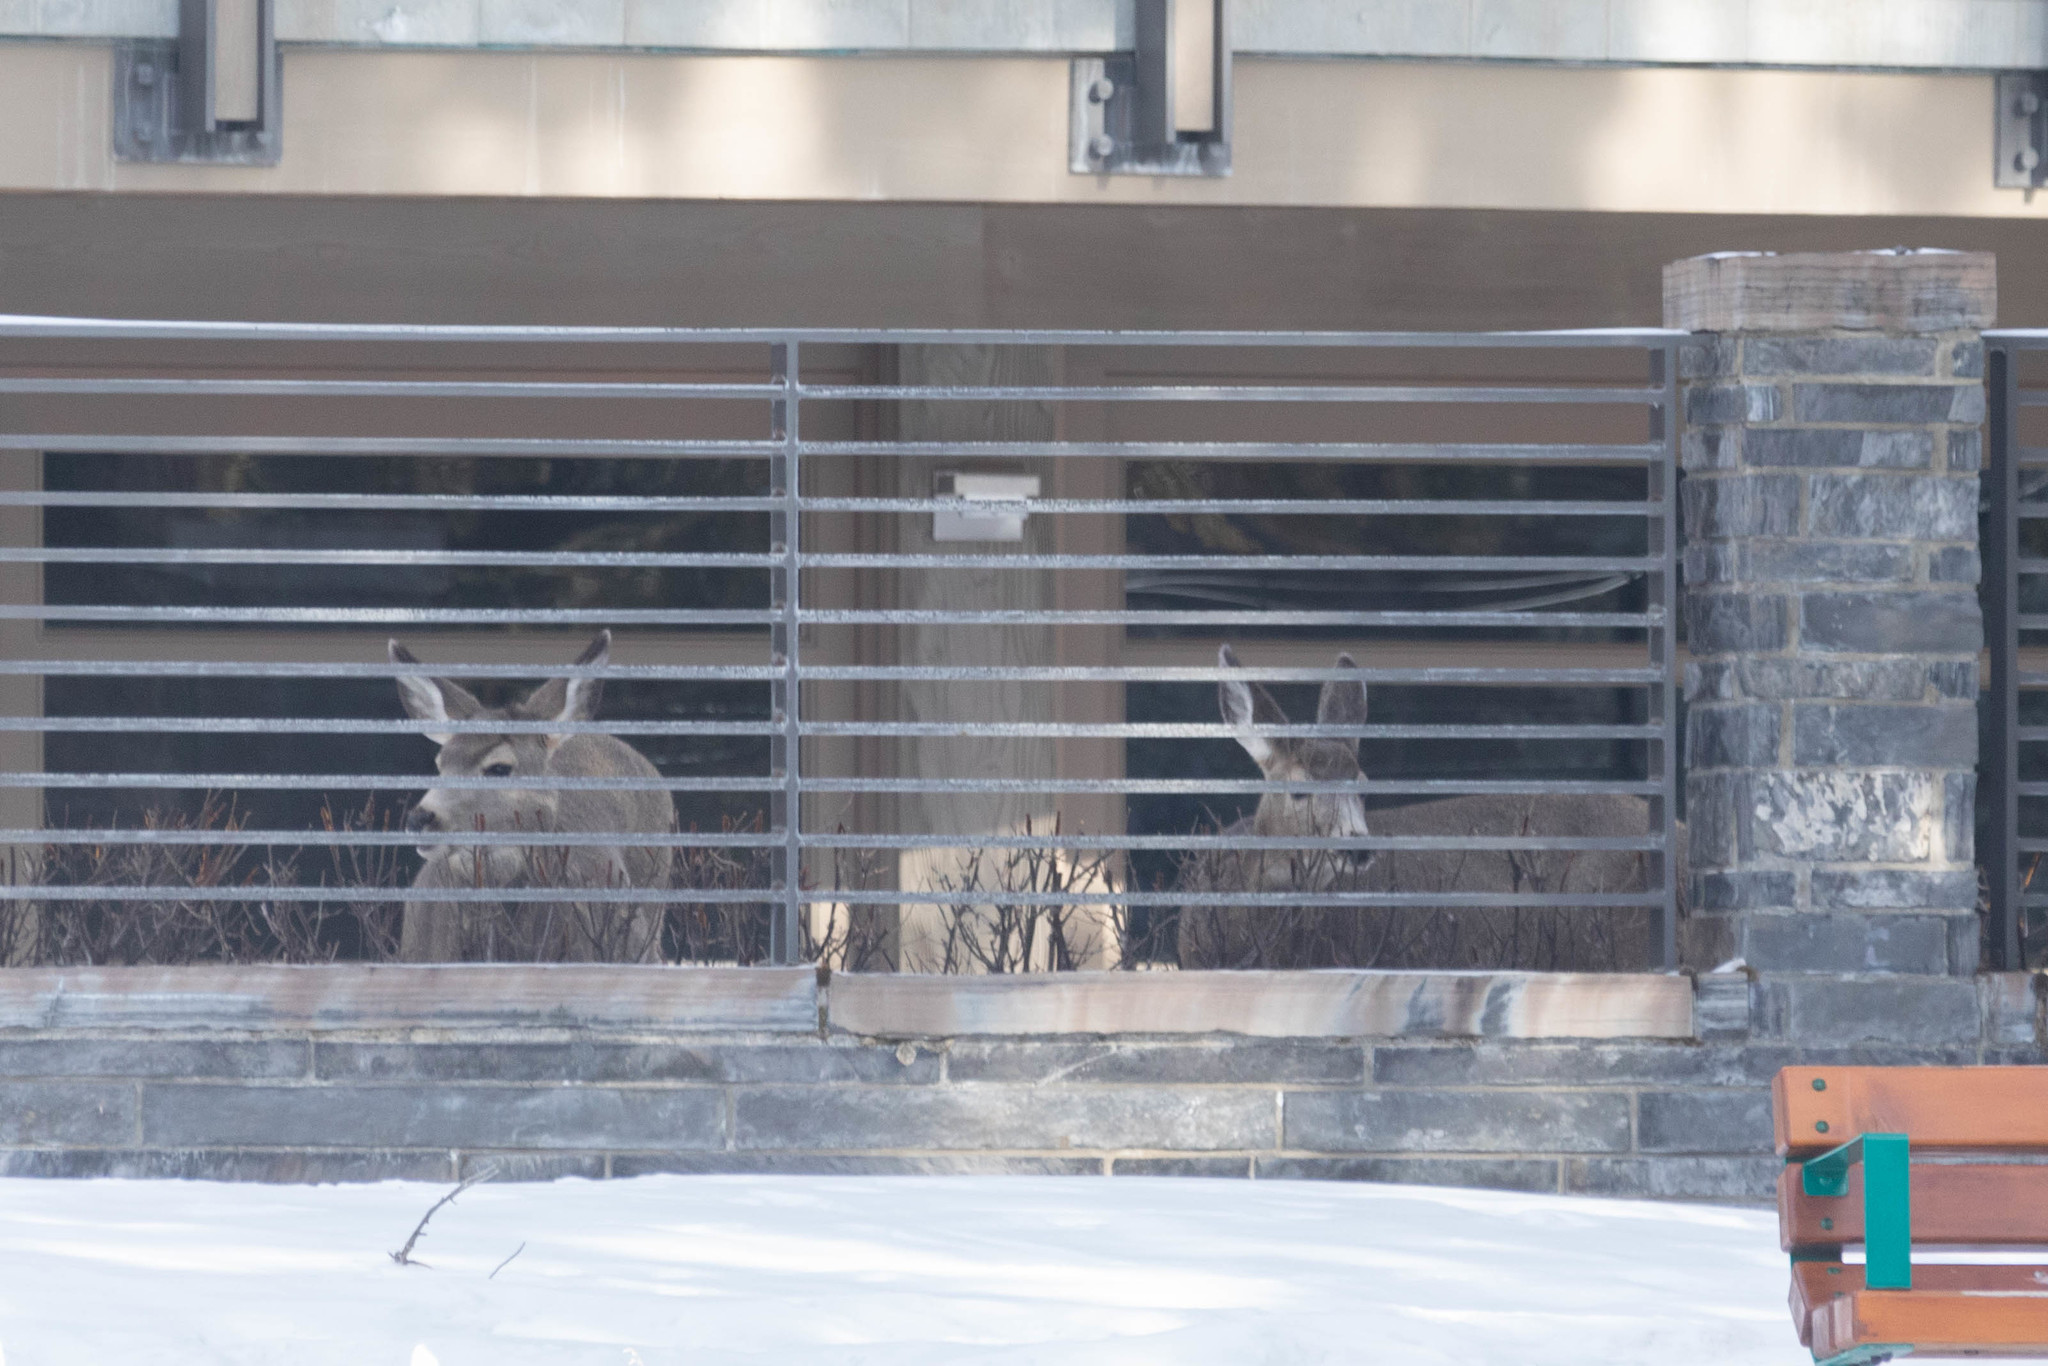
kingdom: Animalia
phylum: Chordata
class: Mammalia
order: Artiodactyla
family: Cervidae
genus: Odocoileus
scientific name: Odocoileus hemionus
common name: Mule deer
